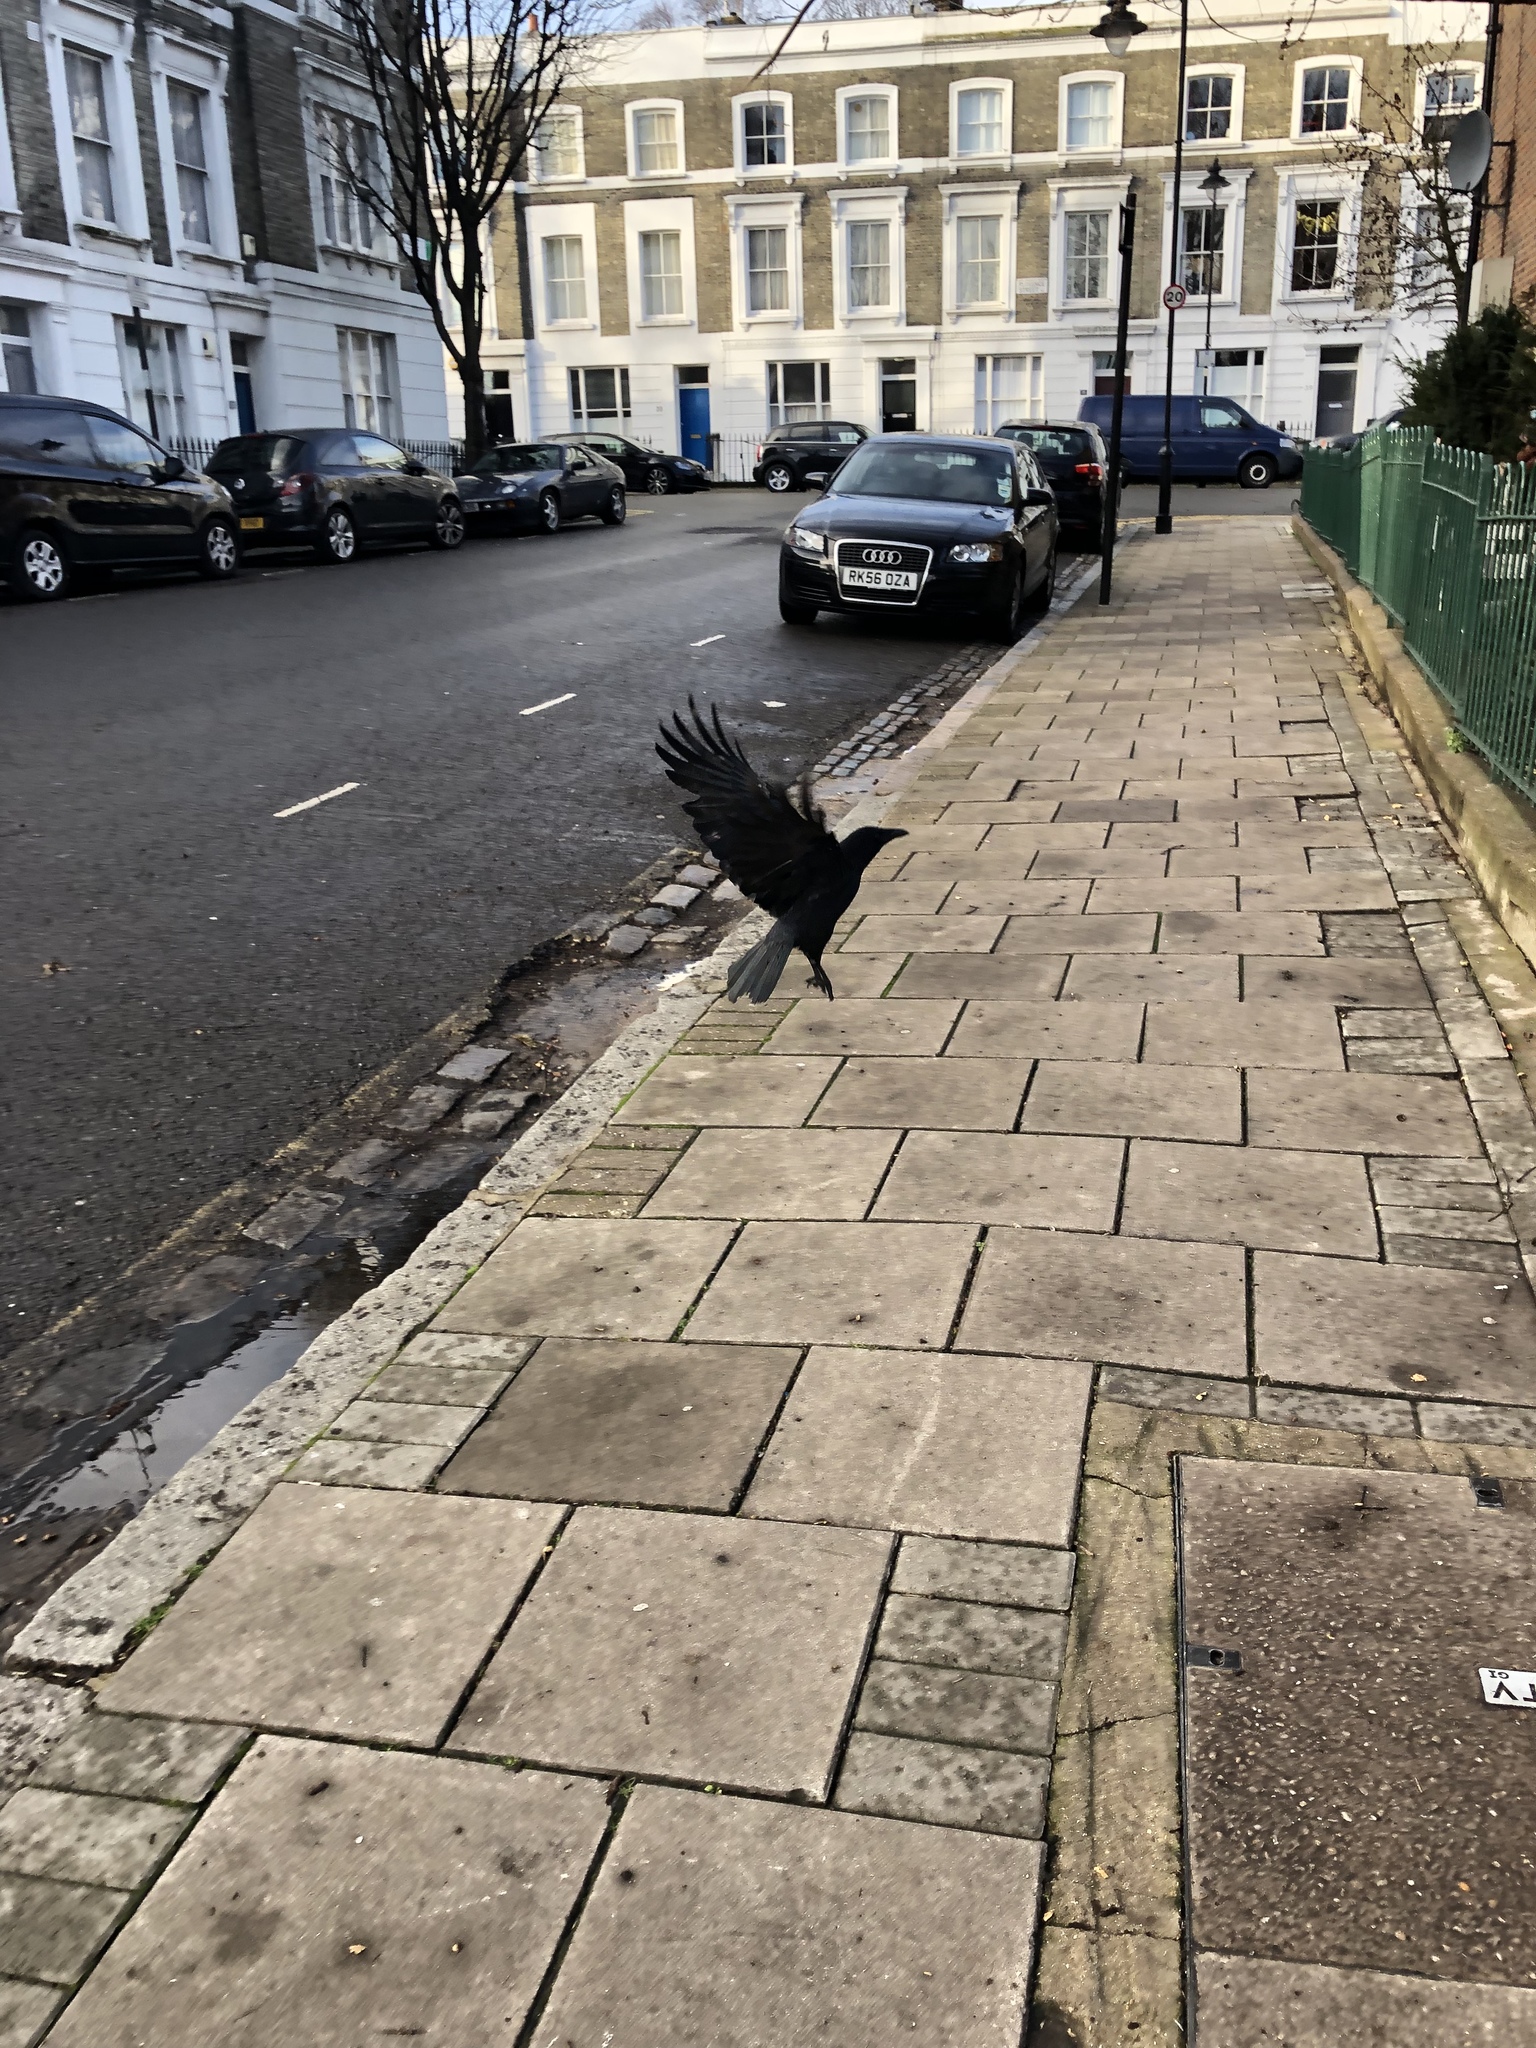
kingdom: Animalia
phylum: Chordata
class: Aves
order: Passeriformes
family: Corvidae
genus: Corvus
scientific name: Corvus corone
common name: Carrion crow
